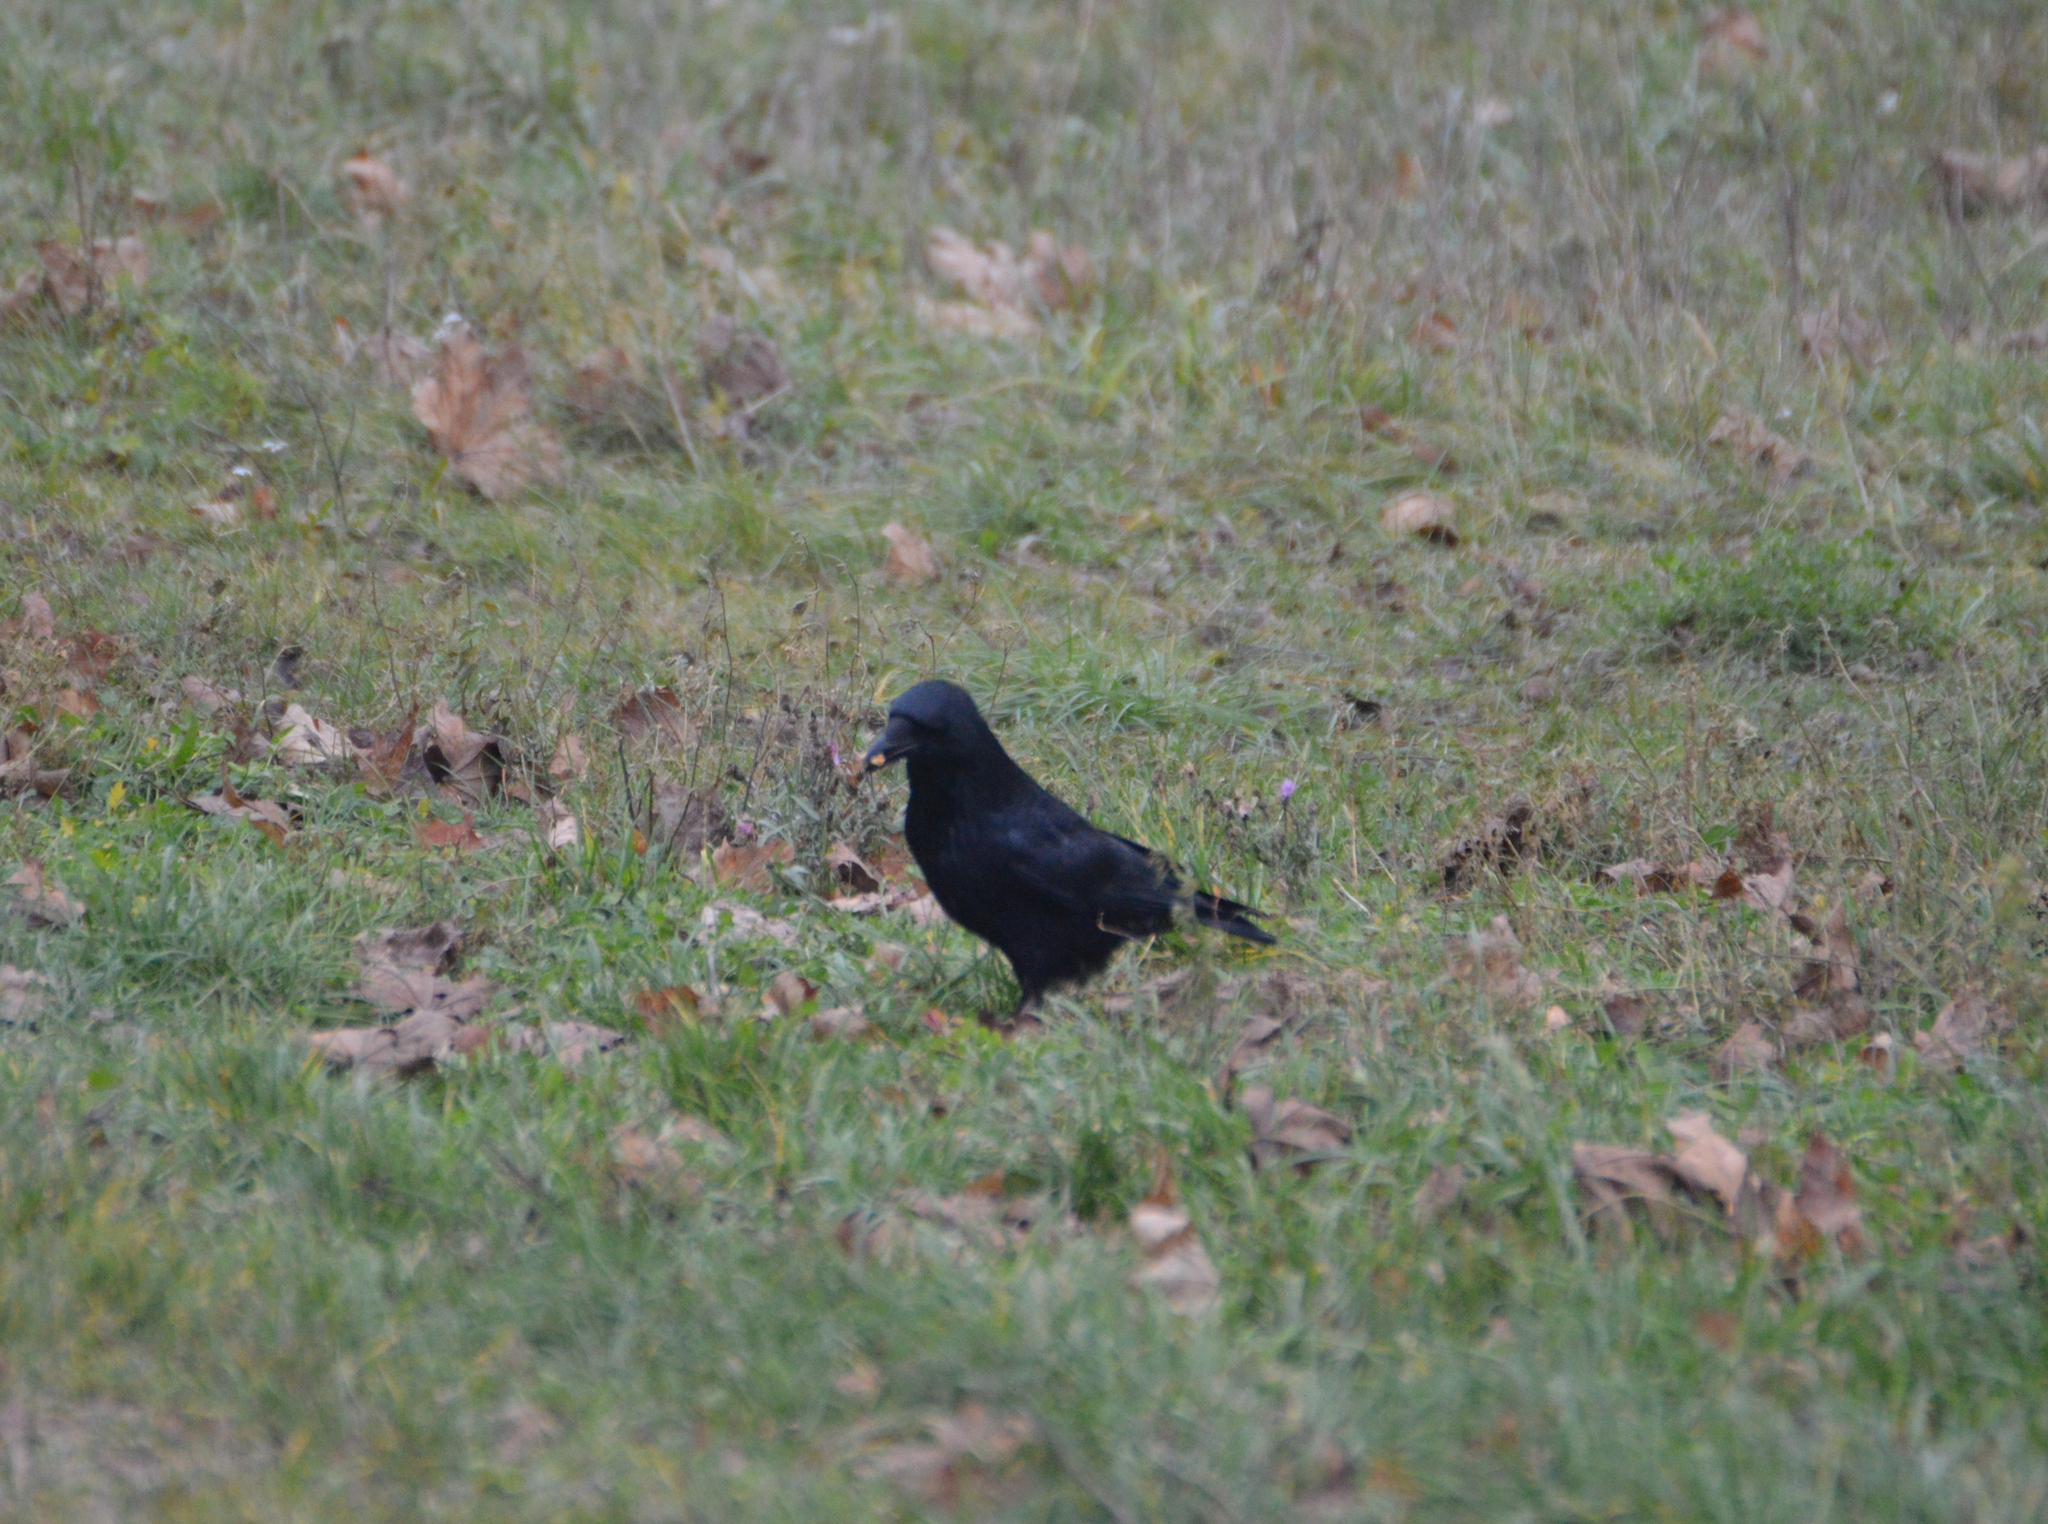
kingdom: Animalia
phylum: Chordata
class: Aves
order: Passeriformes
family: Corvidae
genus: Corvus
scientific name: Corvus corone
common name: Carrion crow
